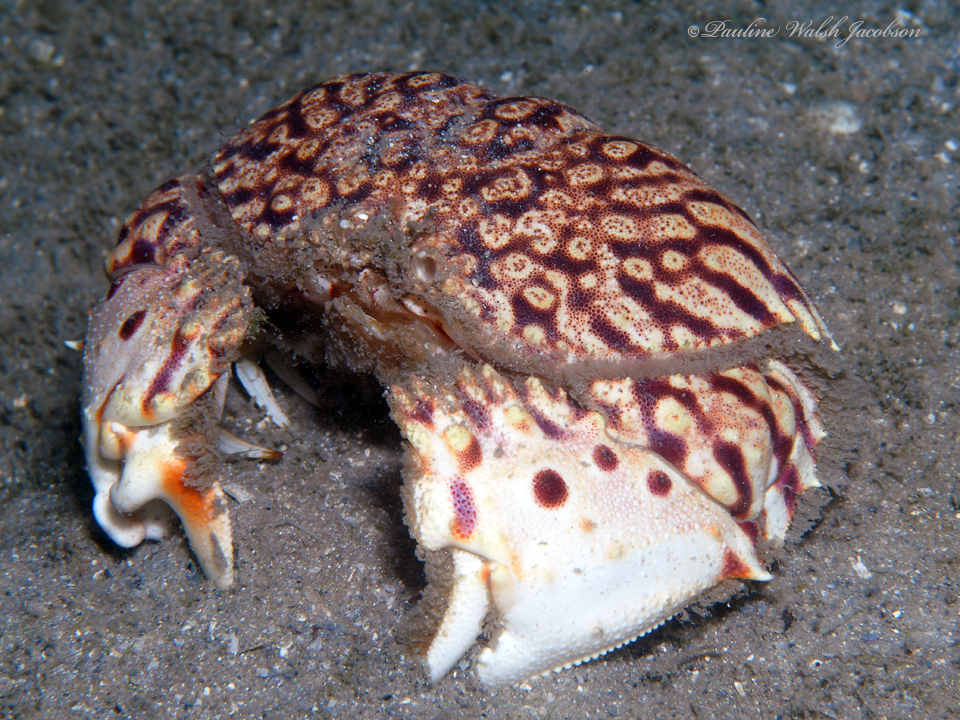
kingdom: Animalia
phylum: Arthropoda
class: Malacostraca
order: Decapoda
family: Calappidae
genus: Calappa
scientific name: Calappa flammea
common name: Flamed box crab
